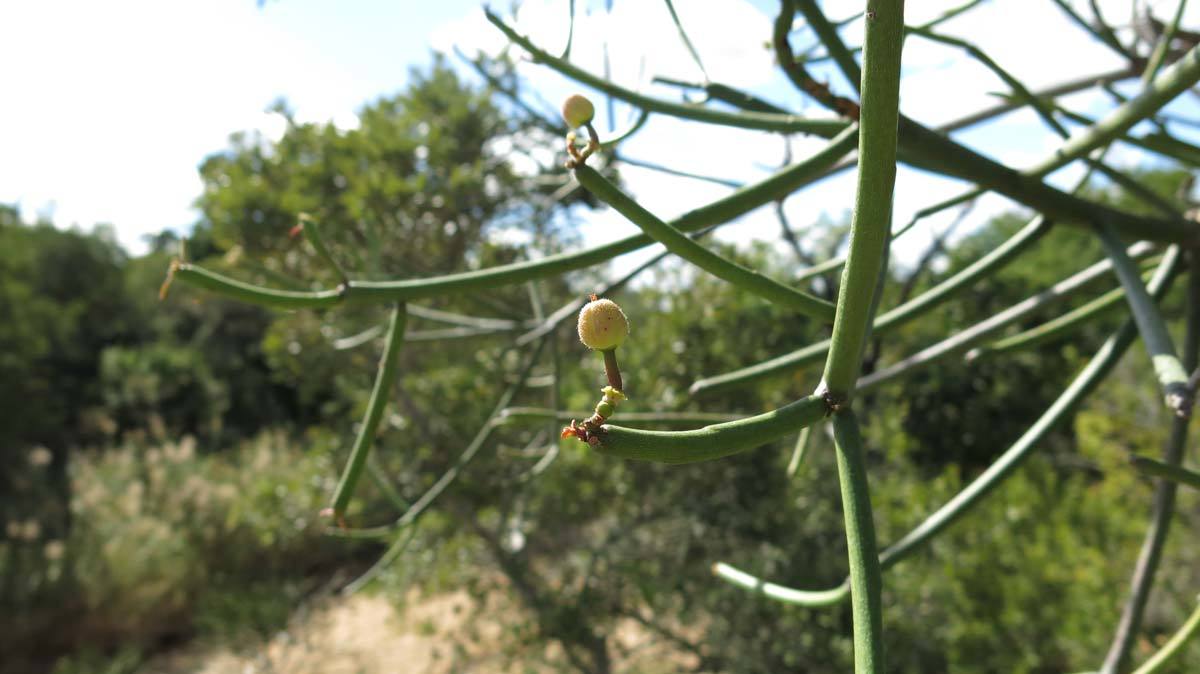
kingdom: Plantae
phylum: Tracheophyta
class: Magnoliopsida
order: Malpighiales
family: Euphorbiaceae
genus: Euphorbia
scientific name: Euphorbia tirucalli
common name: Indiantree spurge
